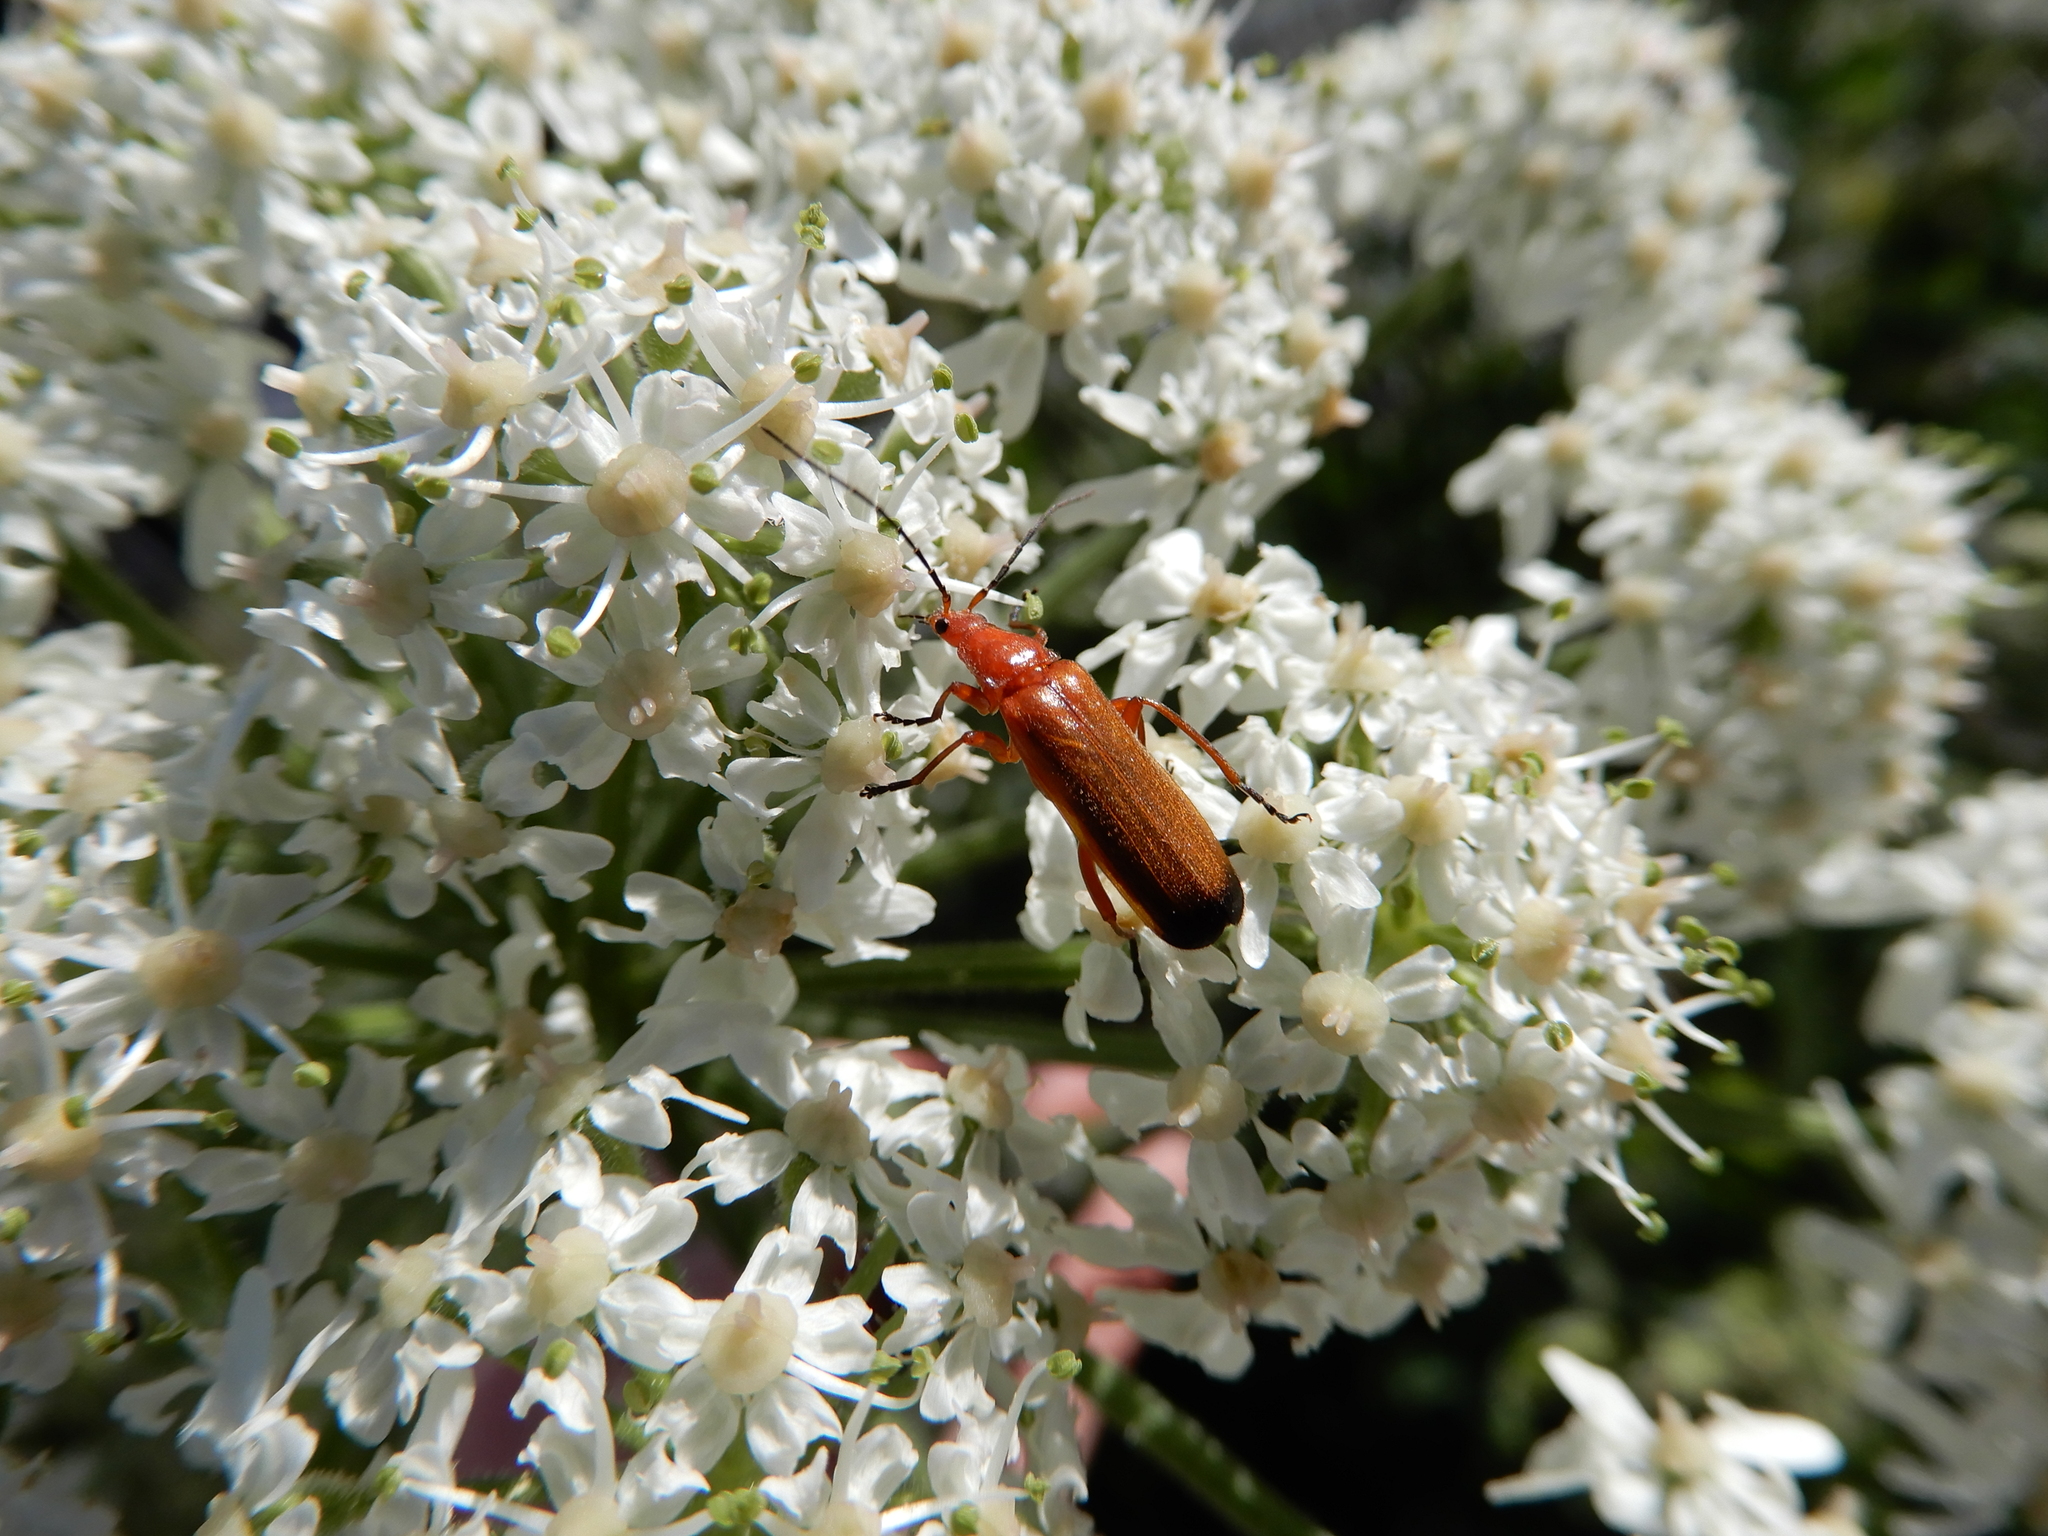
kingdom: Animalia
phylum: Arthropoda
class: Insecta
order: Coleoptera
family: Cantharidae
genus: Rhagonycha
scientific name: Rhagonycha fulva
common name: Common red soldier beetle
